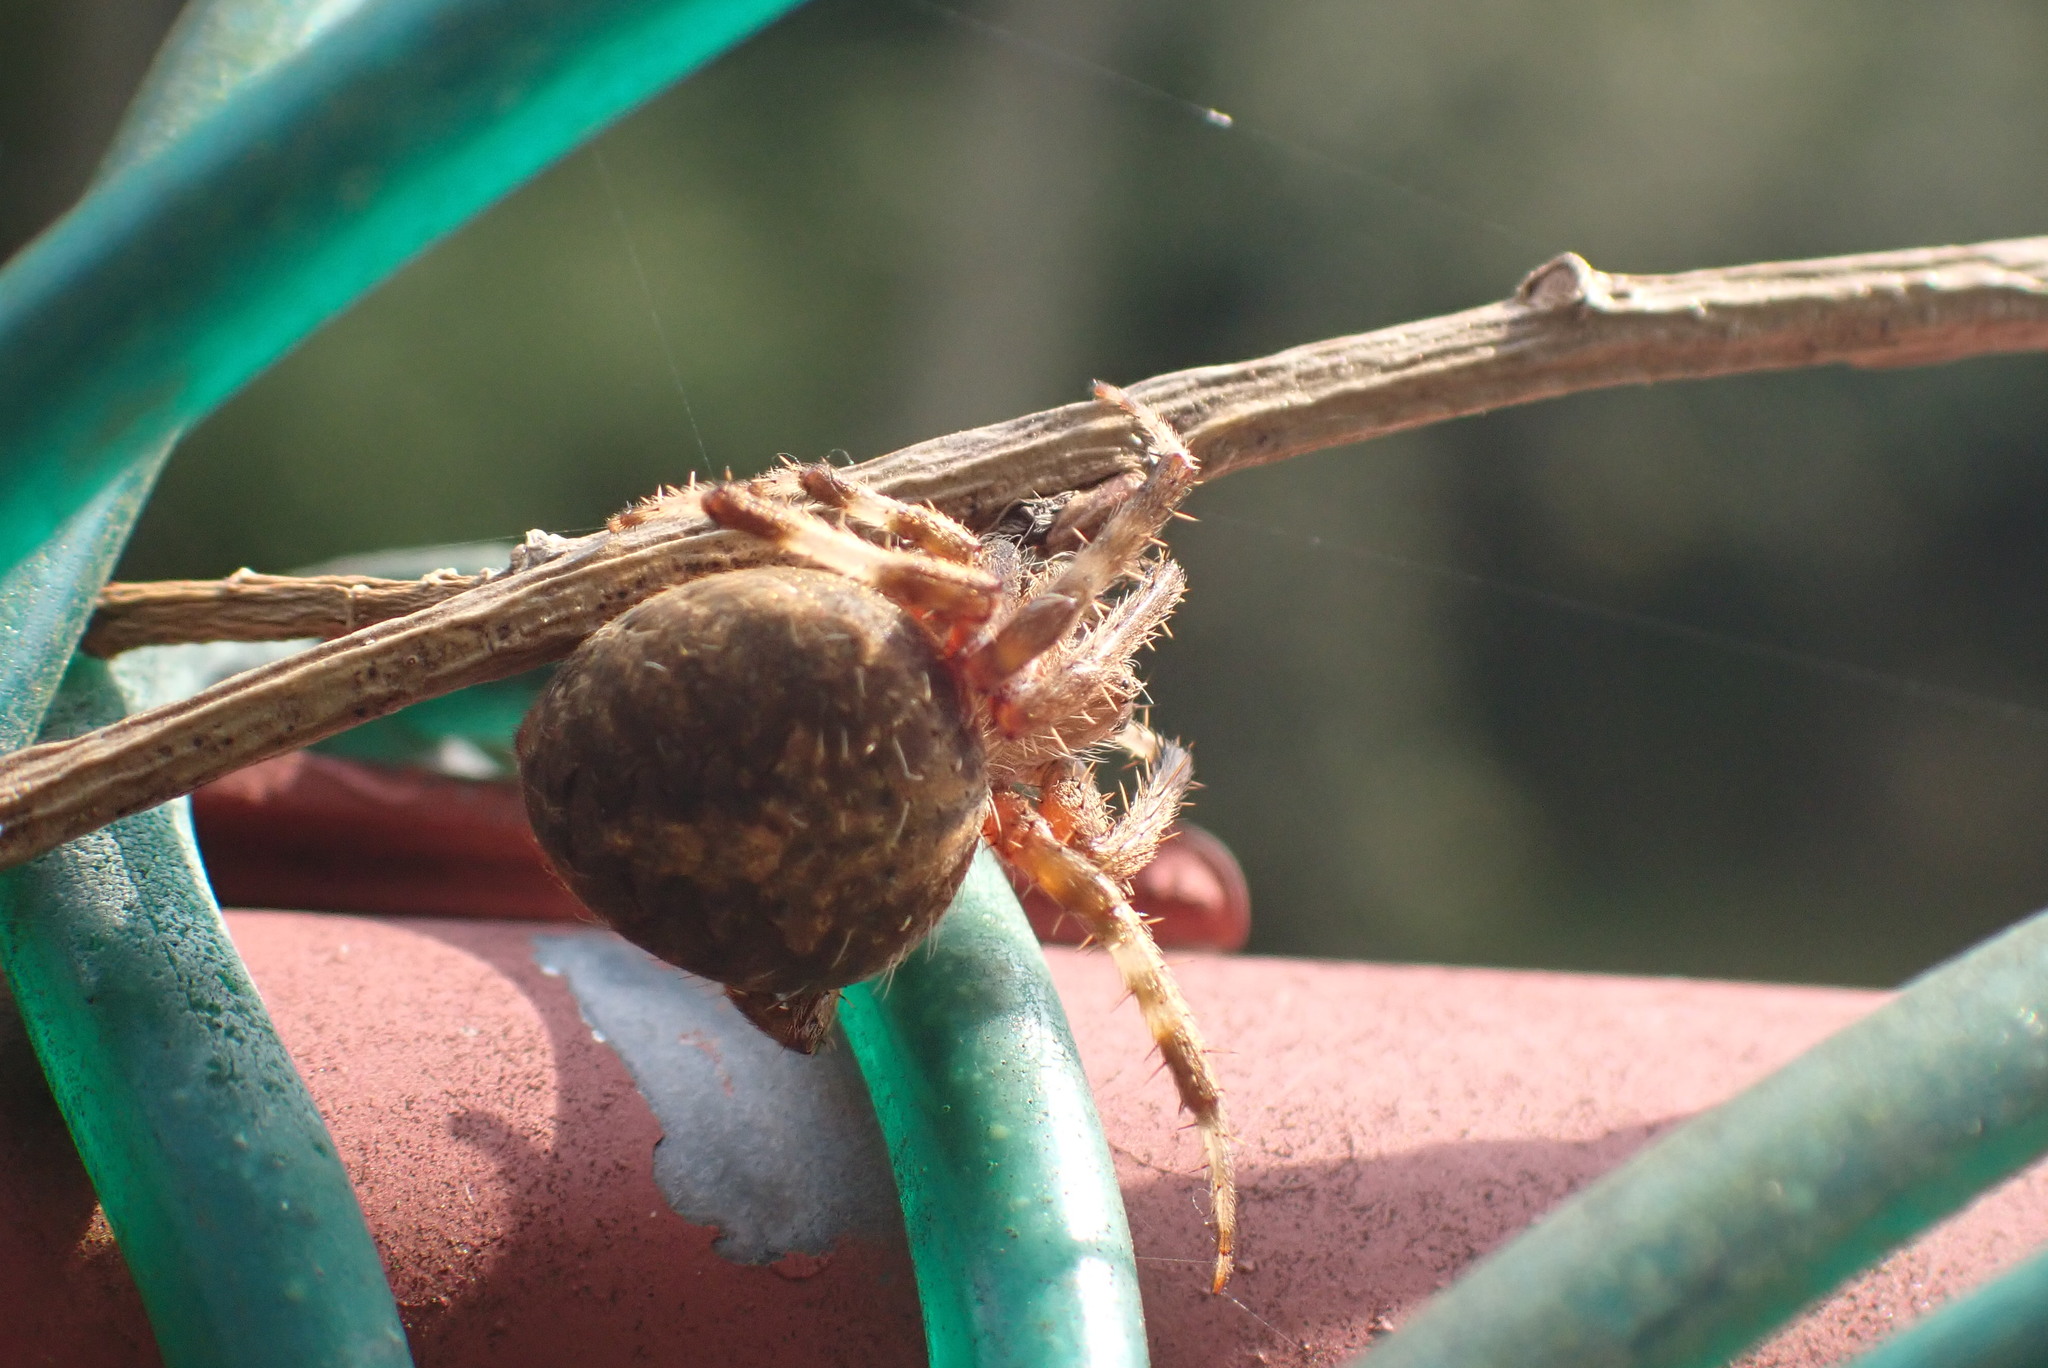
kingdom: Animalia
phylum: Arthropoda
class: Arachnida
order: Araneae
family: Araneidae
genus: Neoscona
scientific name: Neoscona crucifera
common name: Spotted orbweaver
